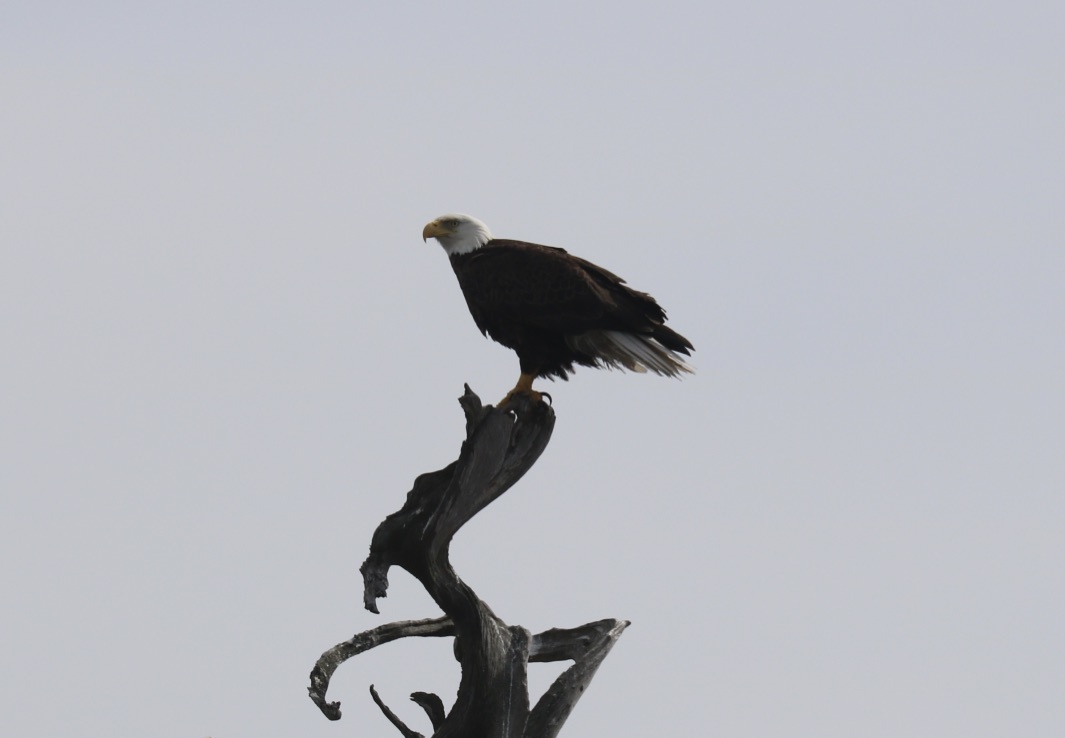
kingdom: Animalia
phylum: Chordata
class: Aves
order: Accipitriformes
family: Accipitridae
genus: Haliaeetus
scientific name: Haliaeetus leucocephalus
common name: Bald eagle
